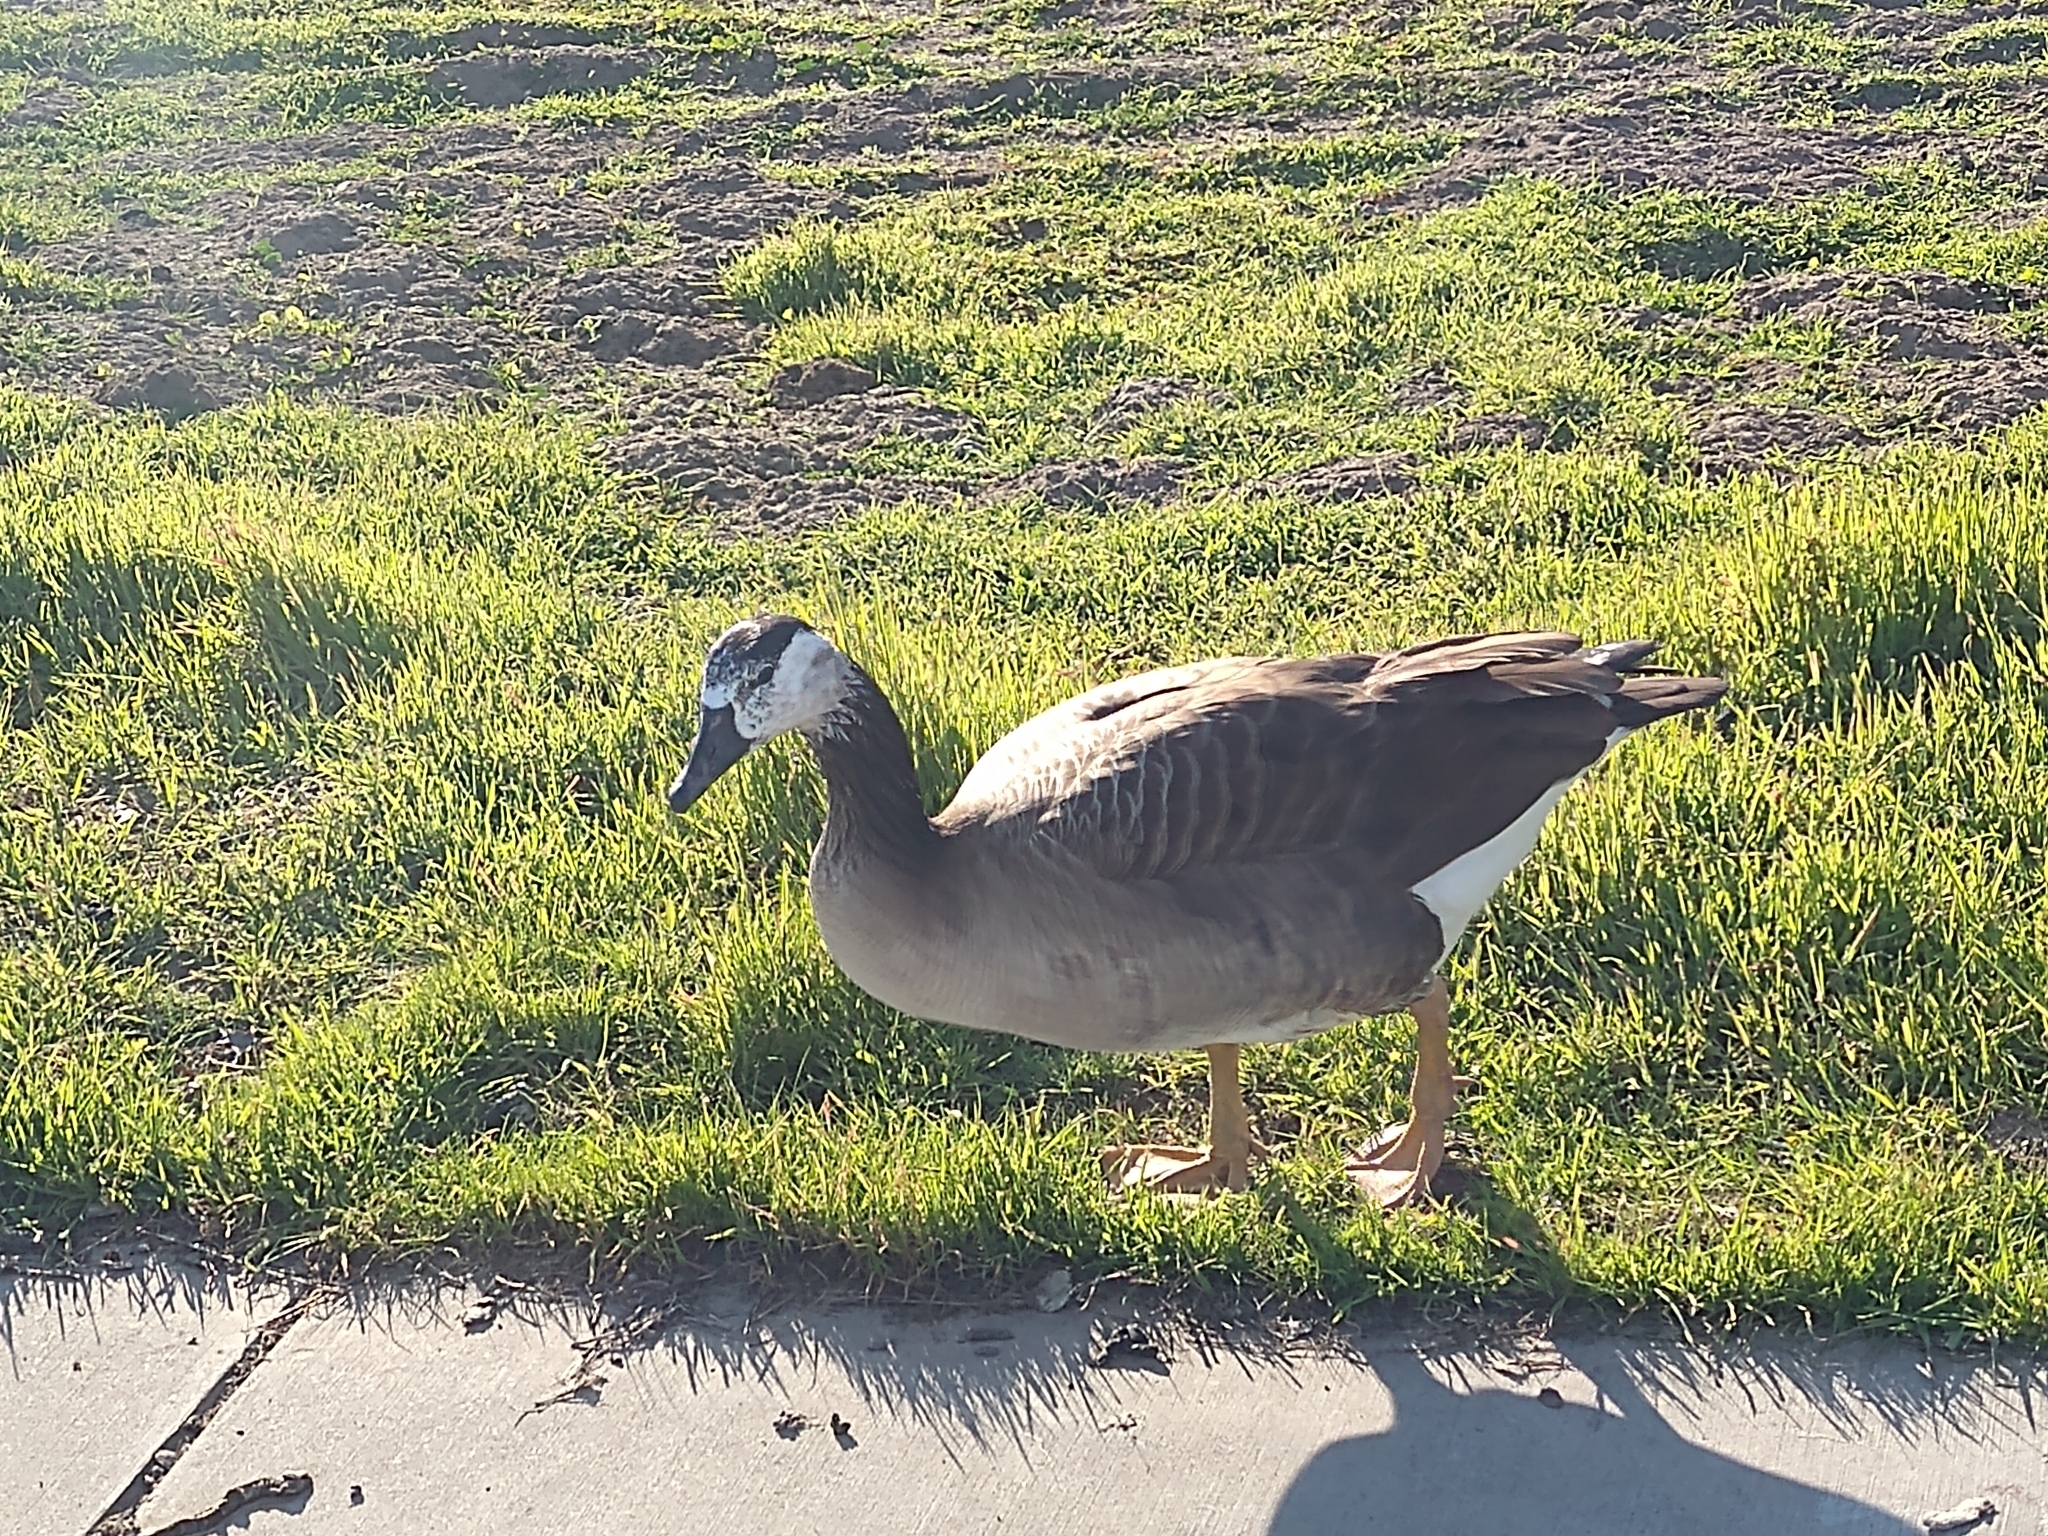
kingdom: Animalia
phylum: Chordata
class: Aves
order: Anseriformes
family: Anatidae
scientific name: Anatidae
